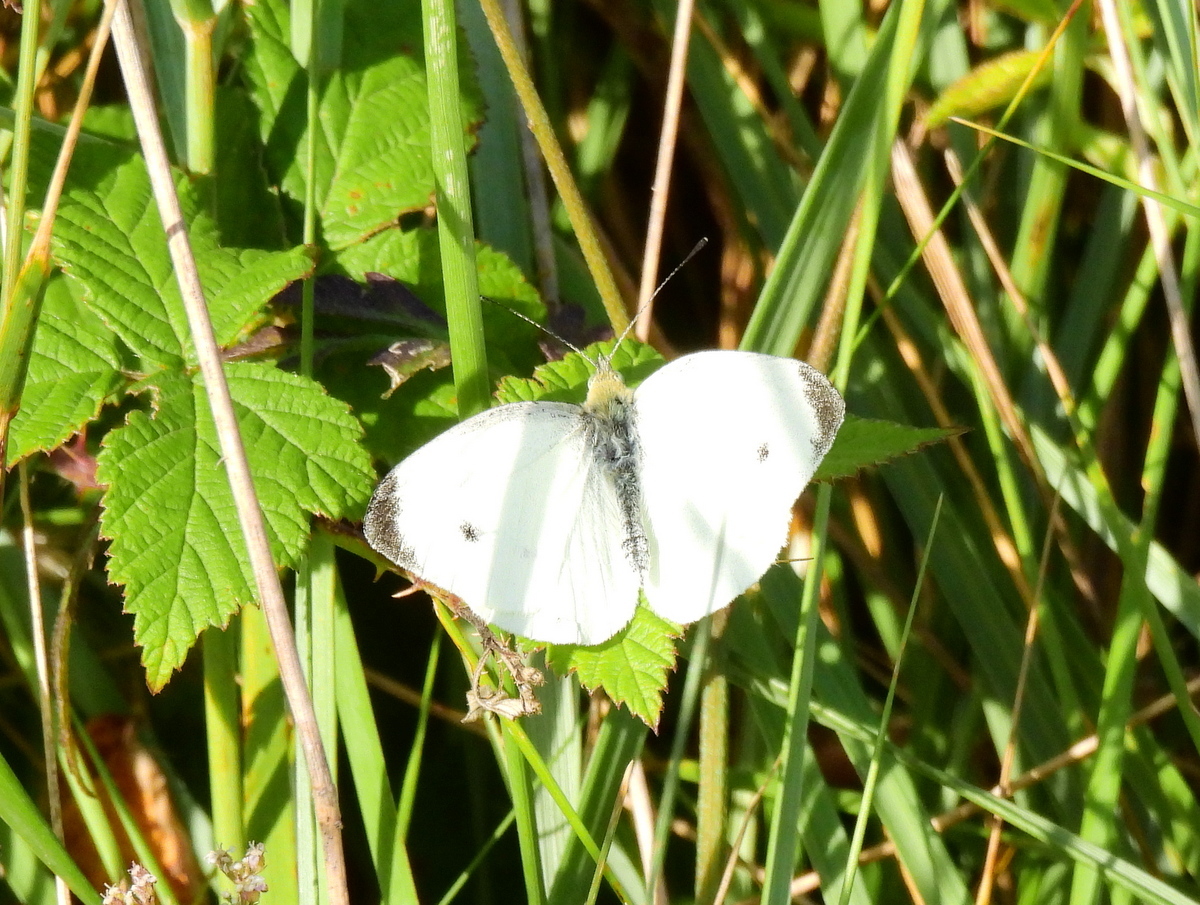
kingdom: Animalia
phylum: Arthropoda
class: Insecta
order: Lepidoptera
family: Pieridae
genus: Pieris
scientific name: Pieris rapae
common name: Small white
